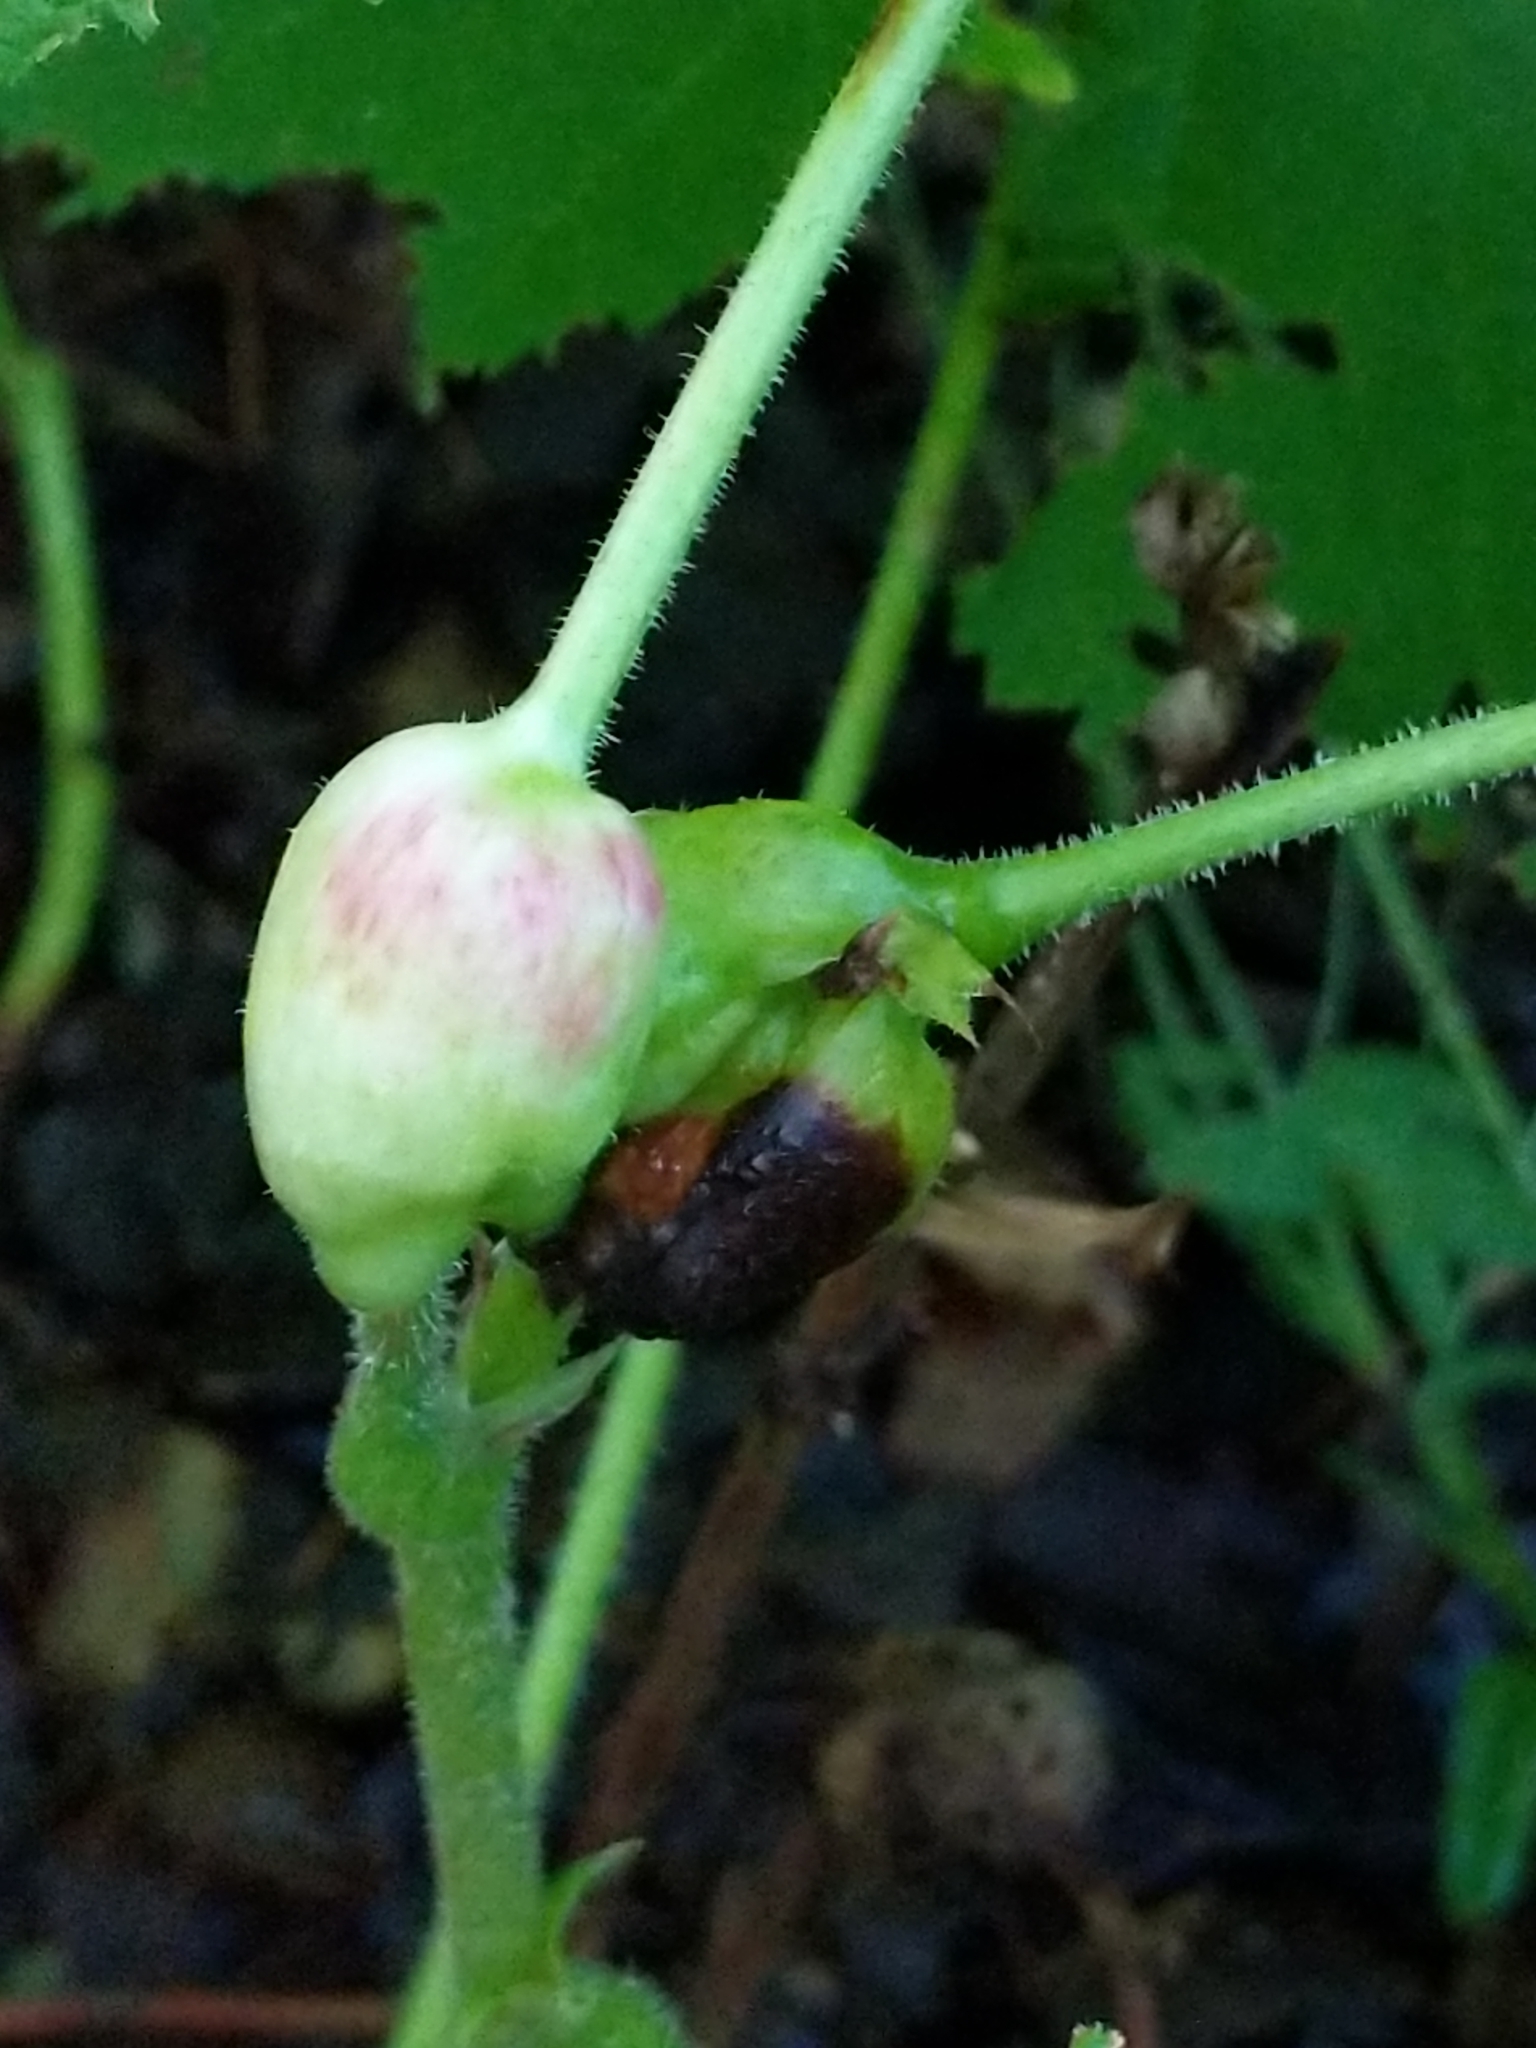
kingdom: Animalia
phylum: Arthropoda
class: Insecta
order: Hymenoptera
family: Cynipidae
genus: Diastrophus
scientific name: Diastrophus
